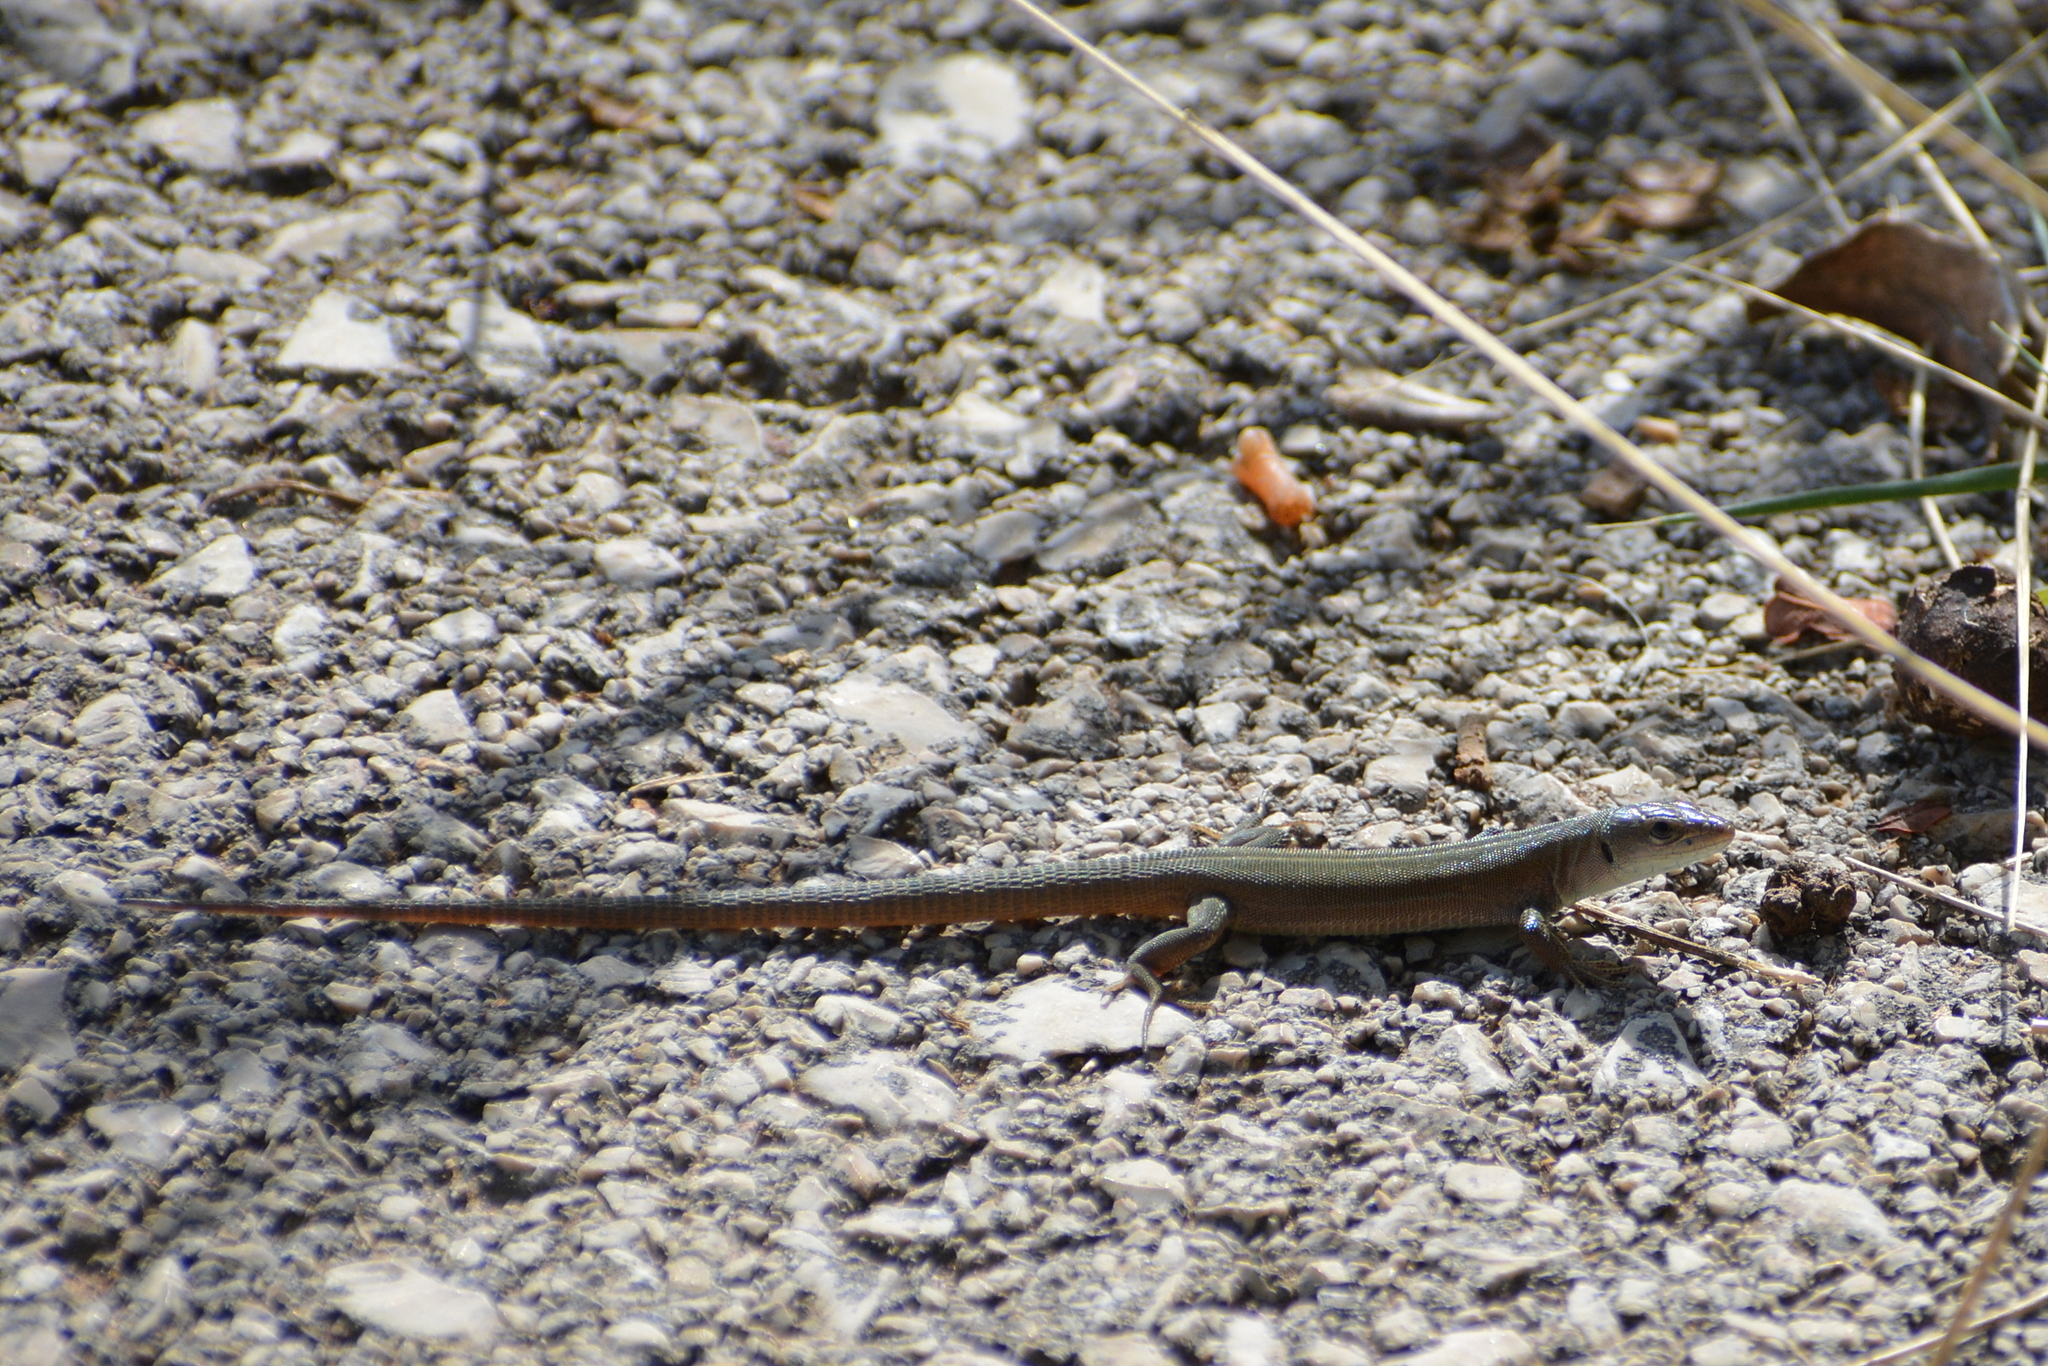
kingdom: Animalia
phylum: Chordata
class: Squamata
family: Lacertidae
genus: Podarcis
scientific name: Podarcis melisellensis
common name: Dalmatian wall lizard
